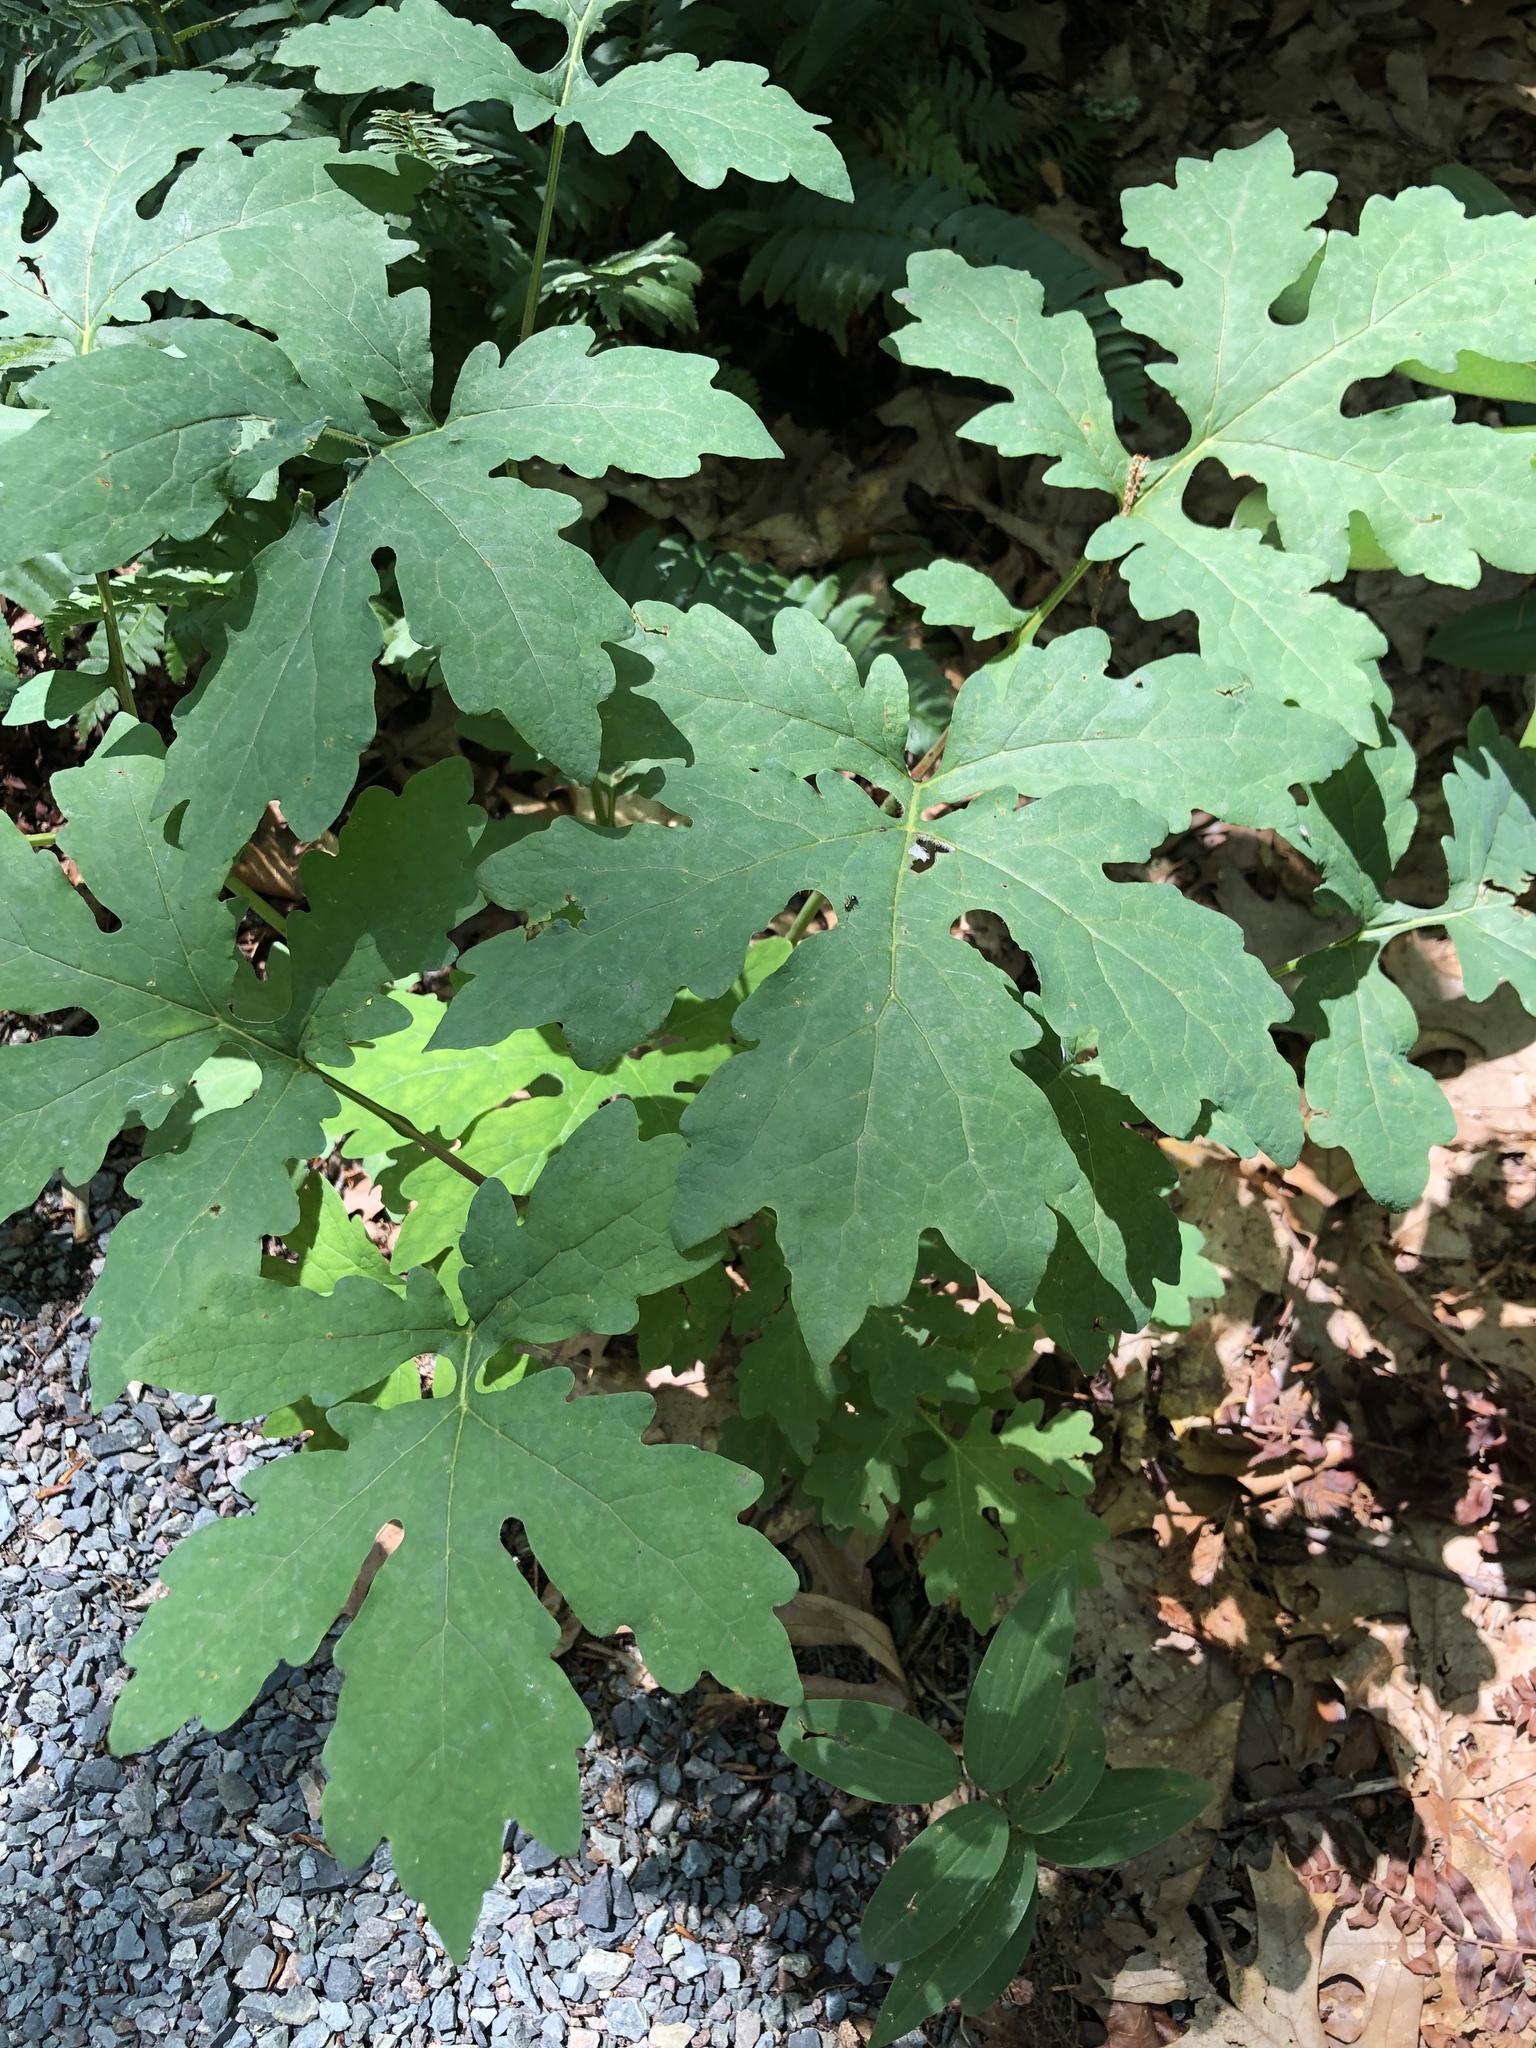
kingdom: Plantae
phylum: Tracheophyta
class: Magnoliopsida
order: Ranunculales
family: Papaveraceae
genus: Stylophorum
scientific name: Stylophorum diphyllum
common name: Celandine poppy
